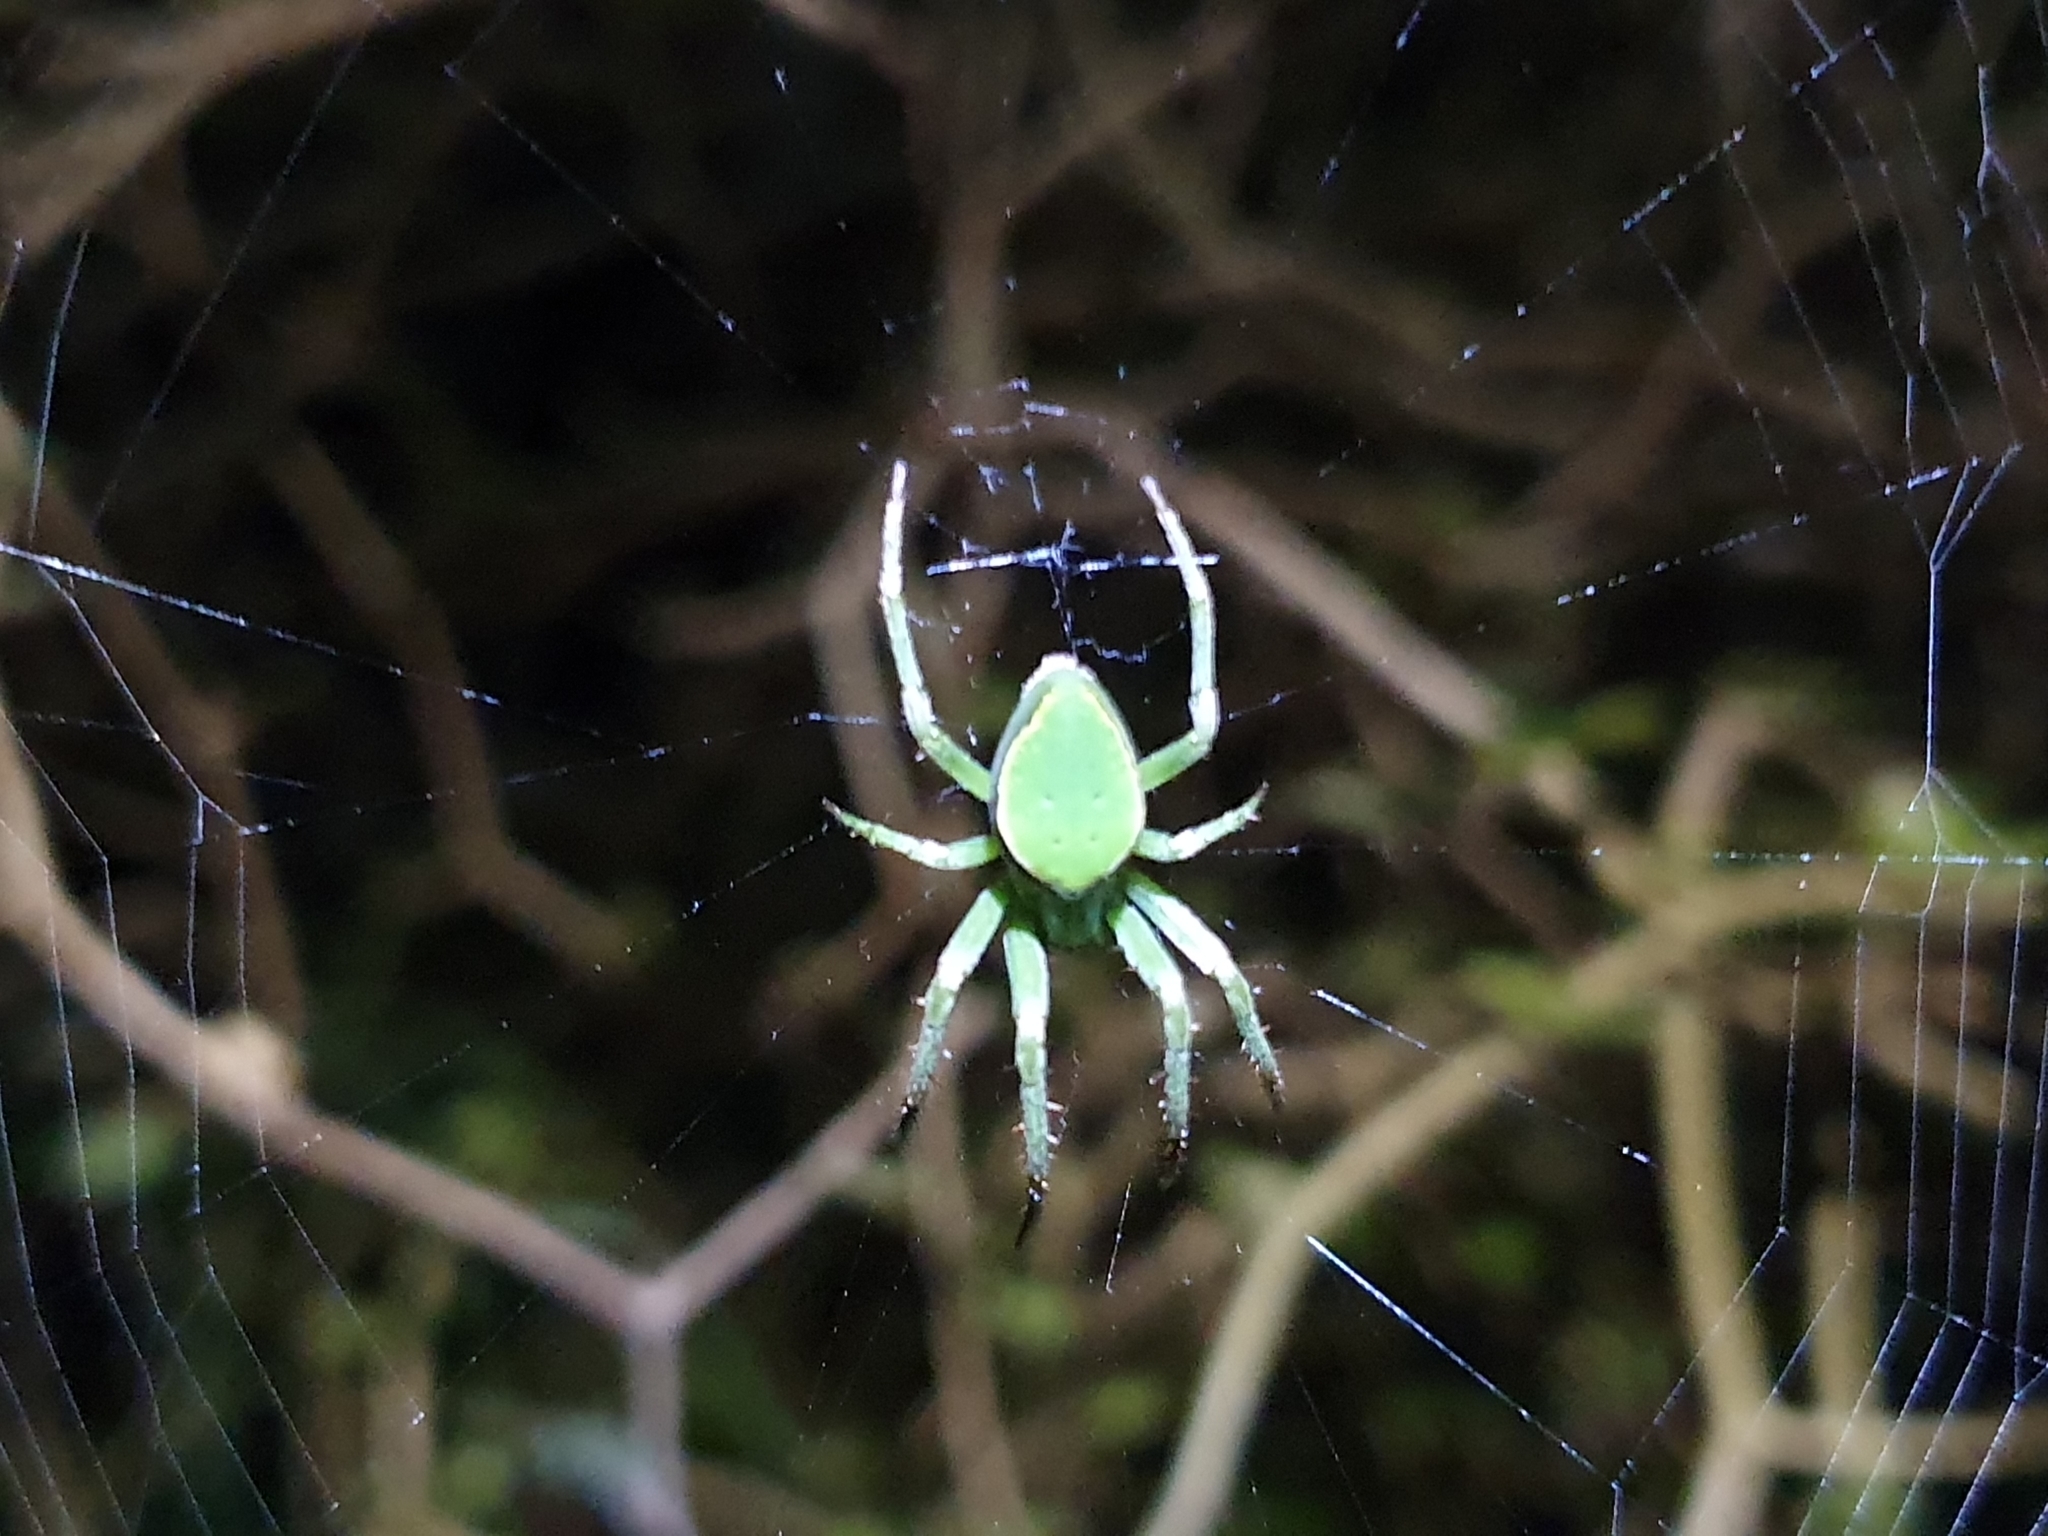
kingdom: Animalia
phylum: Arthropoda
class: Arachnida
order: Araneae
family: Araneidae
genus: Colaranea
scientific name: Colaranea viriditas
